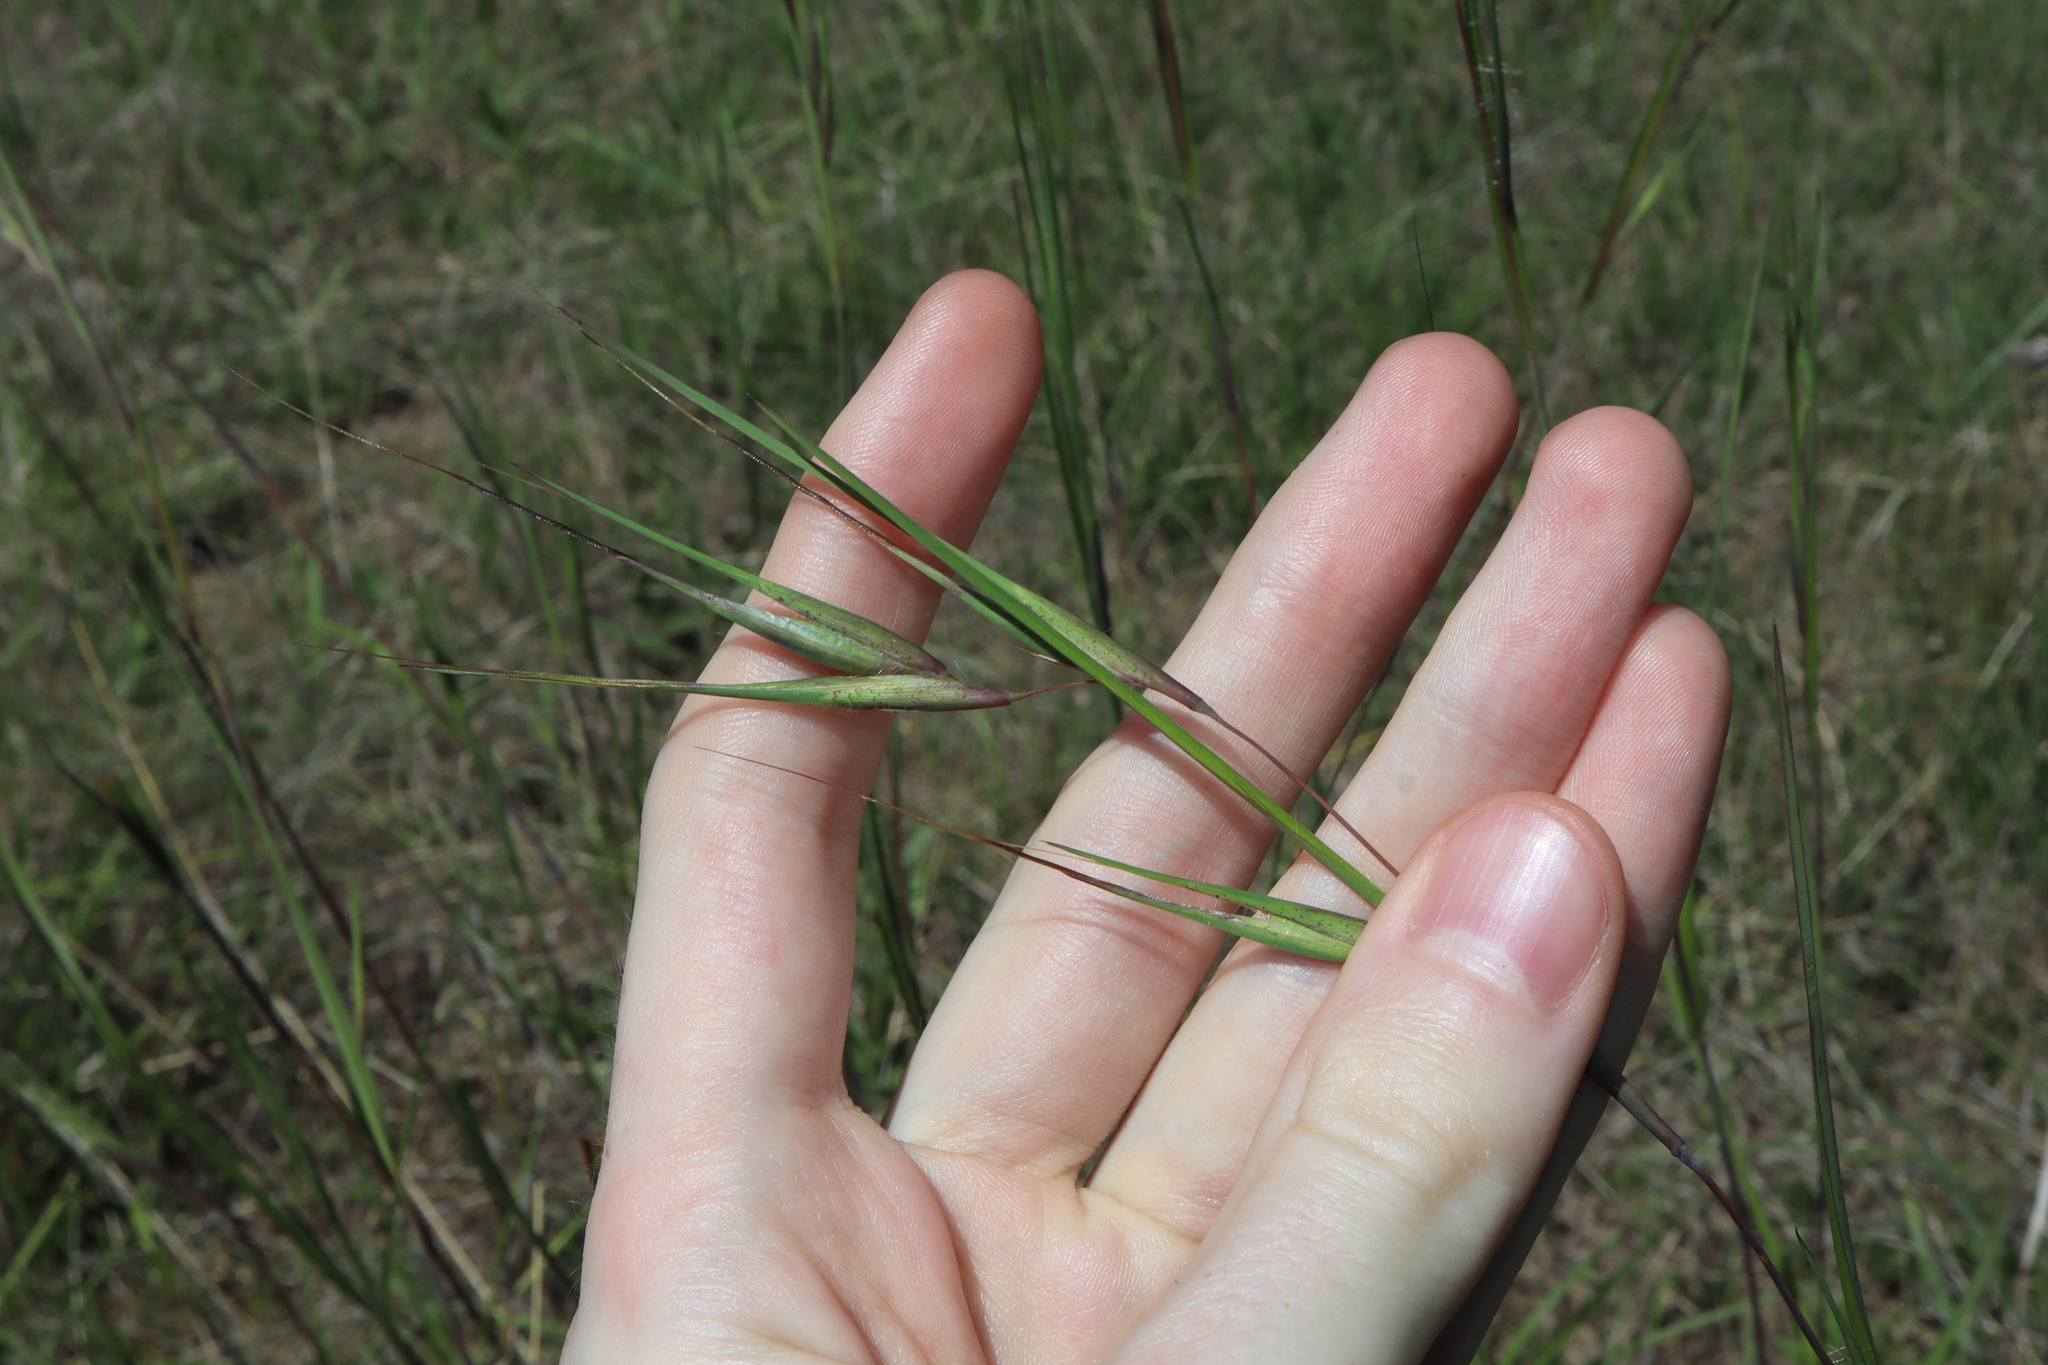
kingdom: Plantae
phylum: Tracheophyta
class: Liliopsida
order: Poales
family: Poaceae
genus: Themeda
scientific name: Themeda triandra
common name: Kangaroo grass
